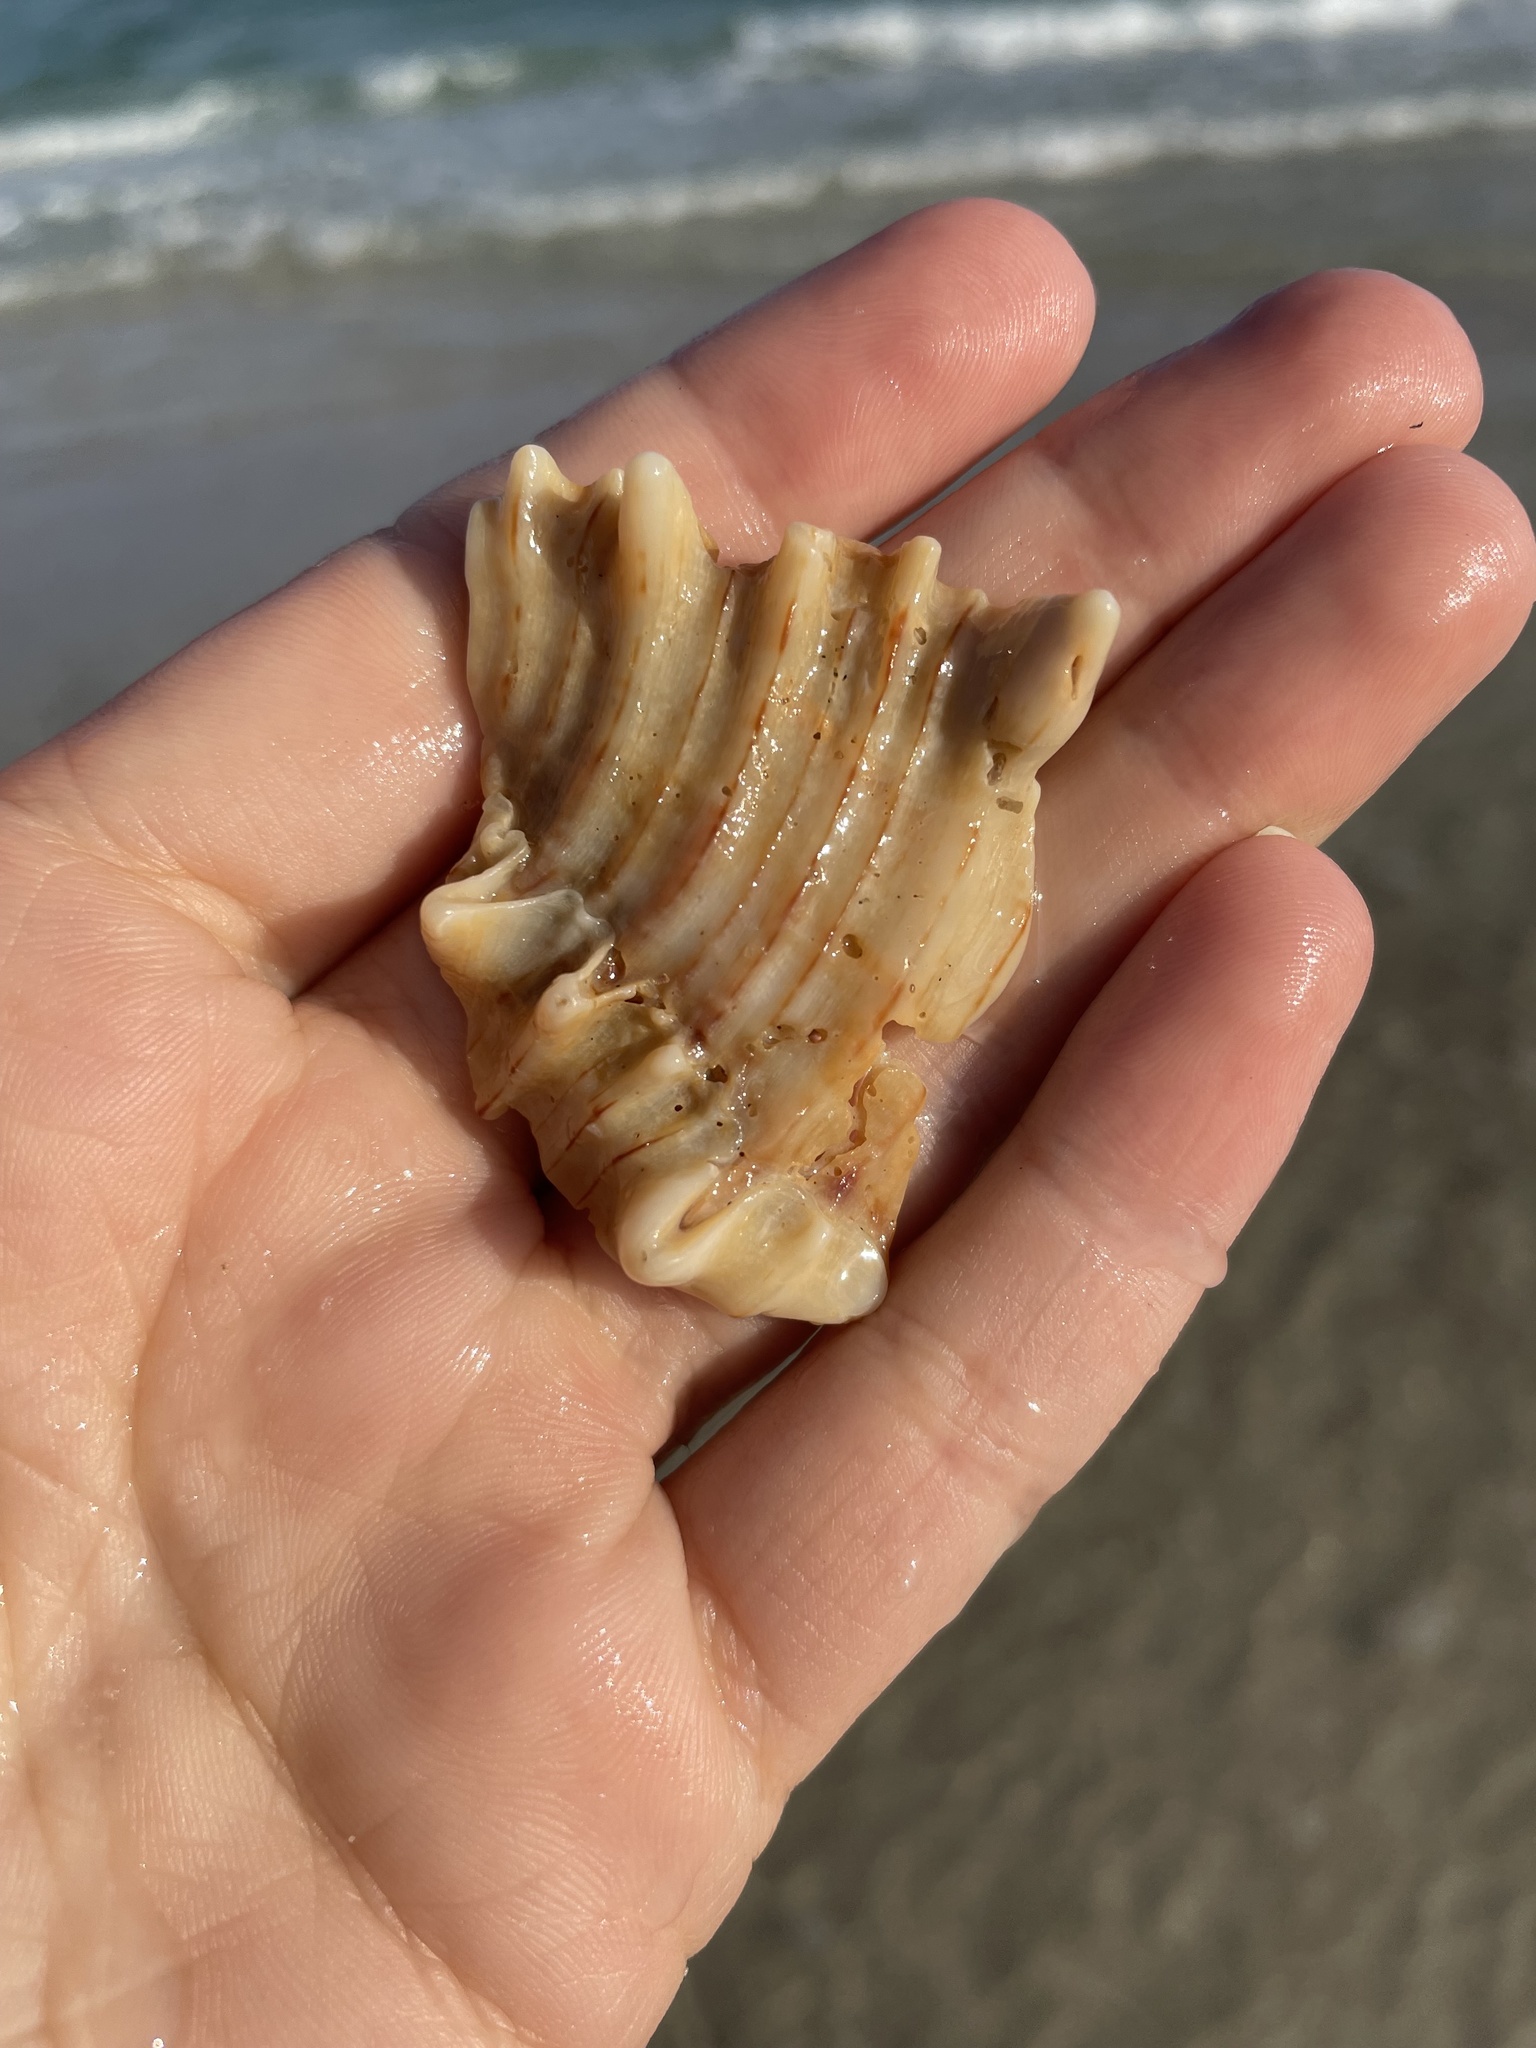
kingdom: Animalia
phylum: Mollusca
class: Gastropoda
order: Neogastropoda
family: Muricidae
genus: Hexaplex
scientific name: Hexaplex fulvescens
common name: Tawny murex
